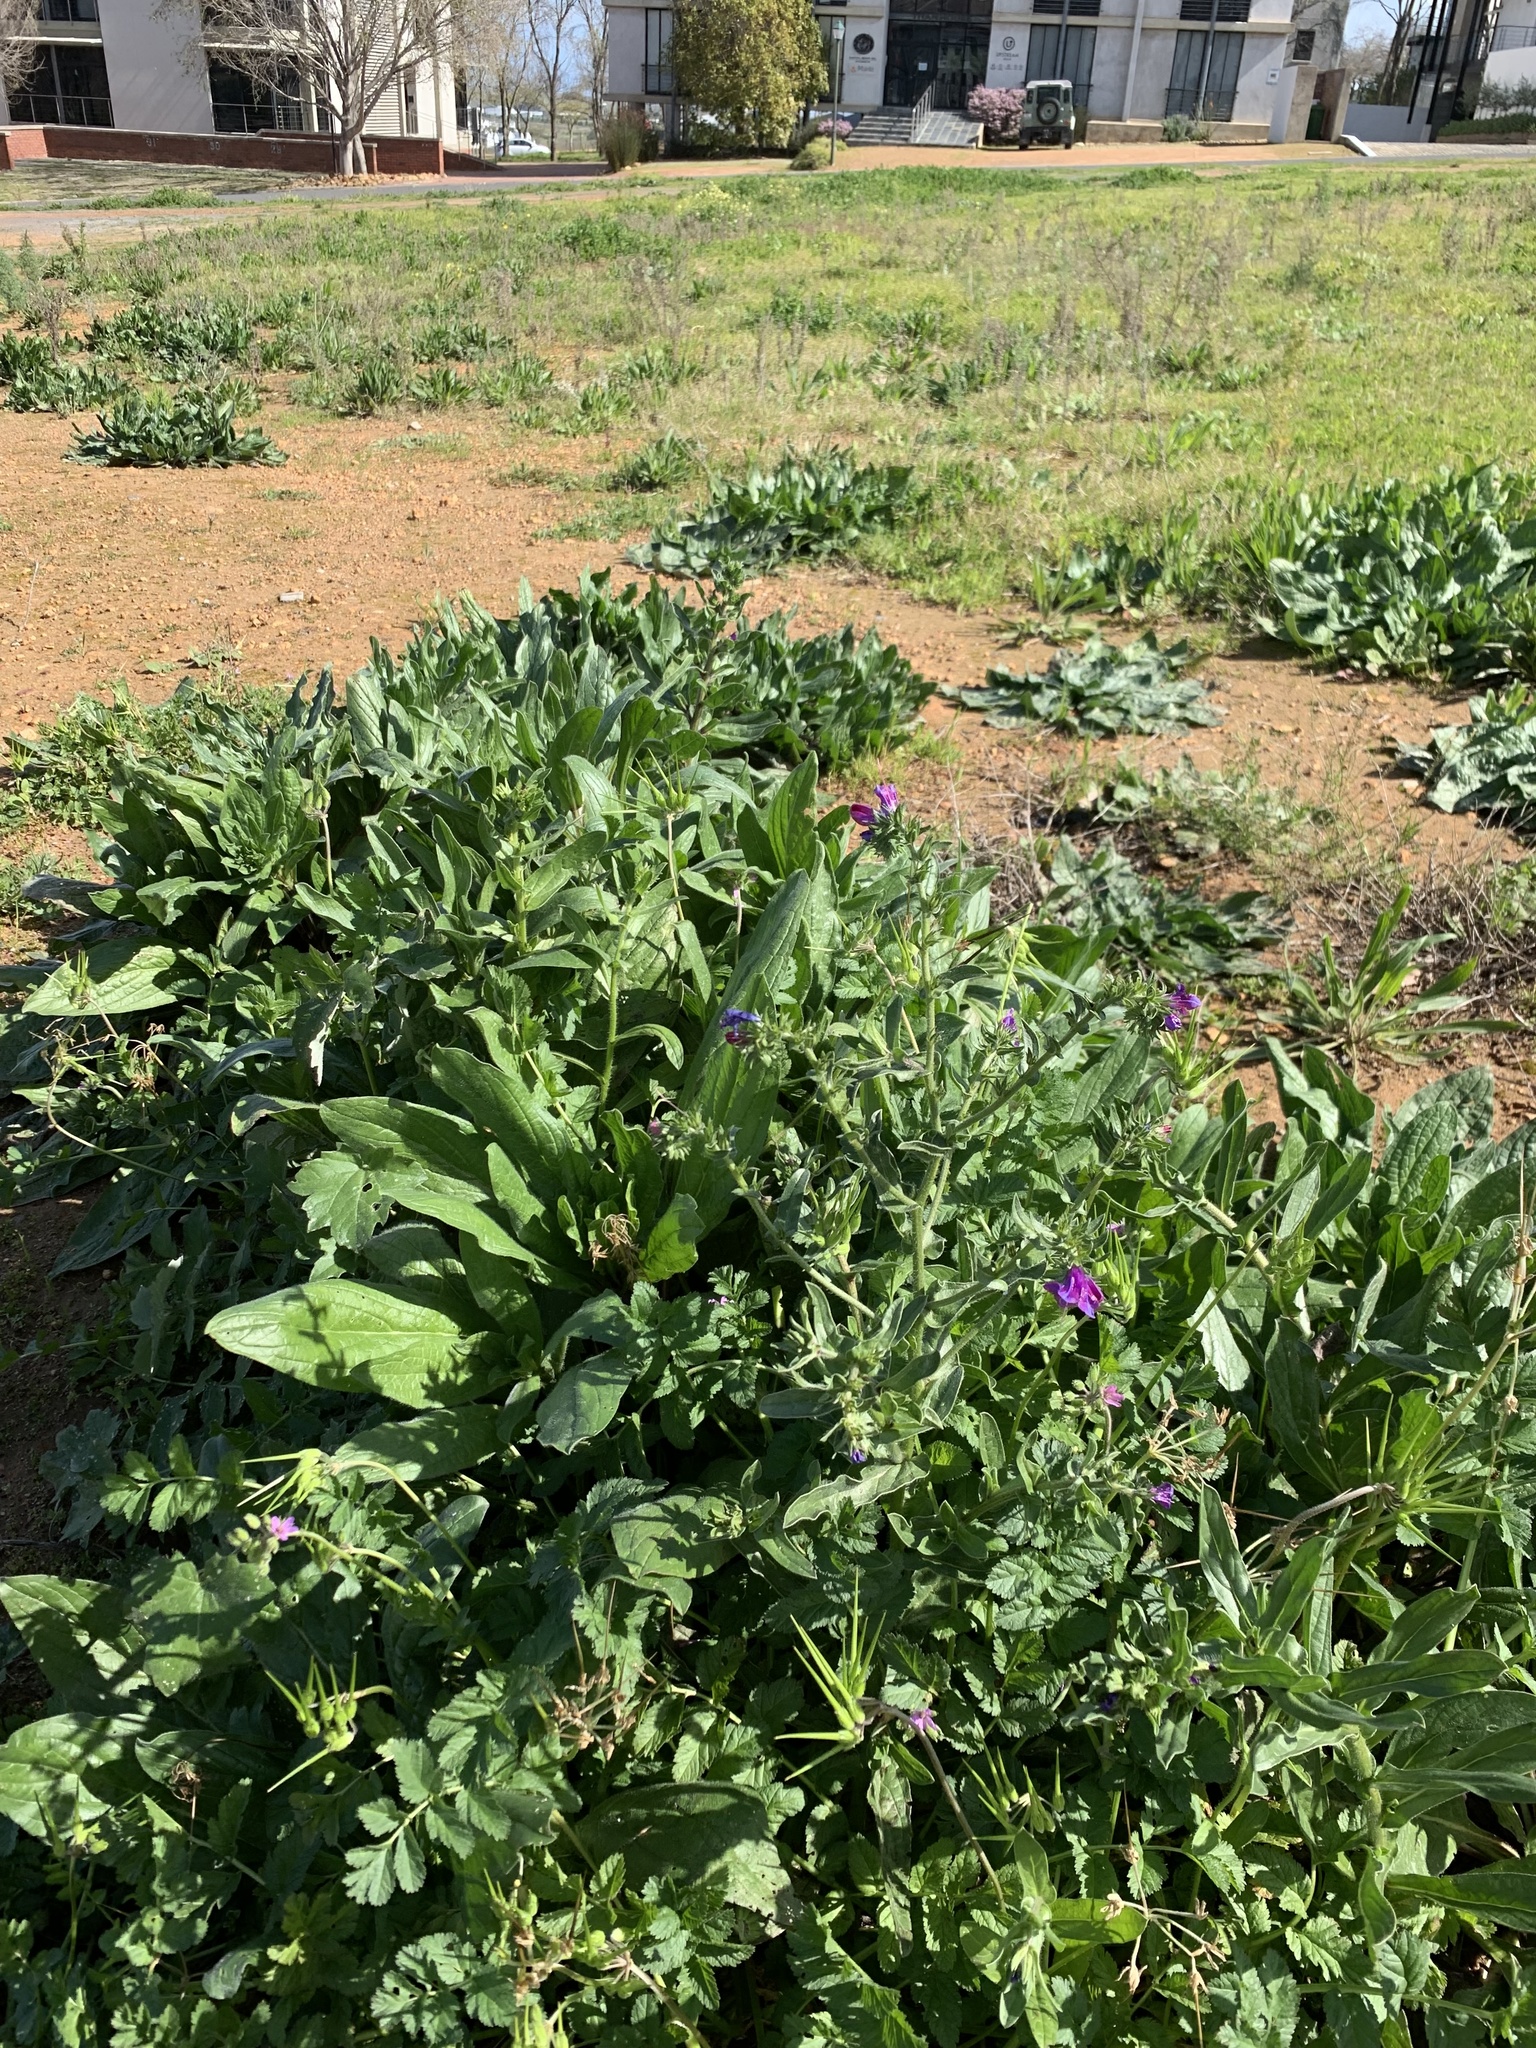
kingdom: Plantae
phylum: Tracheophyta
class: Magnoliopsida
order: Boraginales
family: Boraginaceae
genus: Echium
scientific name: Echium plantagineum
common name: Purple viper's-bugloss
